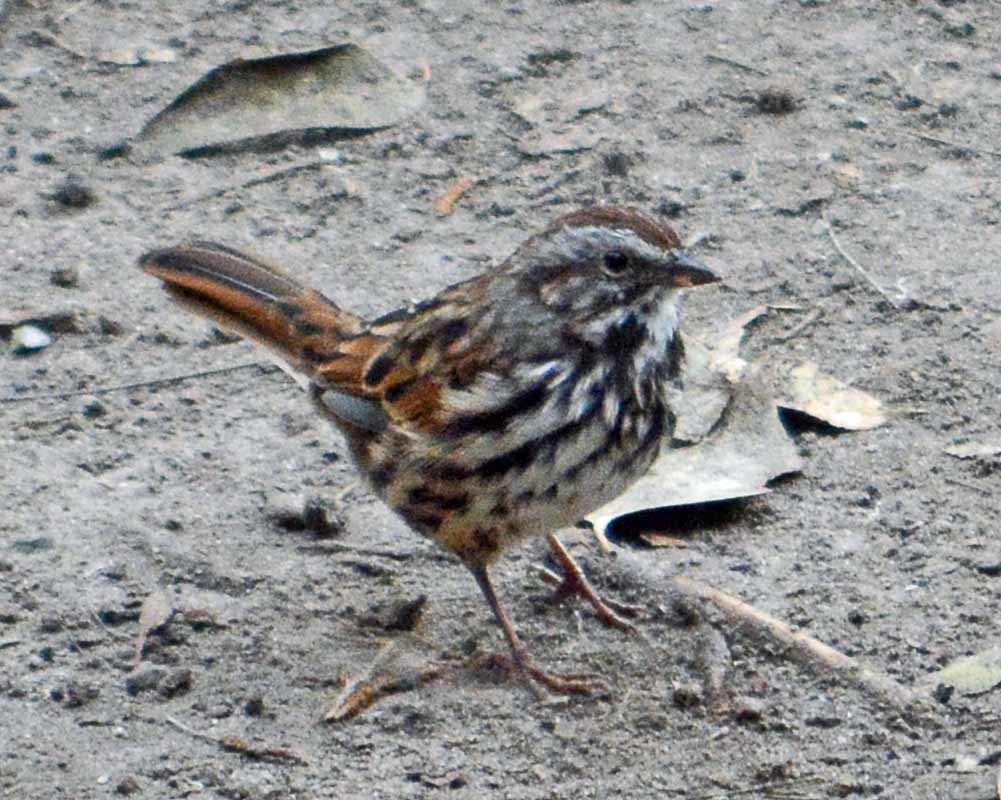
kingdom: Animalia
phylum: Chordata
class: Aves
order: Passeriformes
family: Passerellidae
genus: Melospiza
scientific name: Melospiza melodia
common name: Song sparrow
